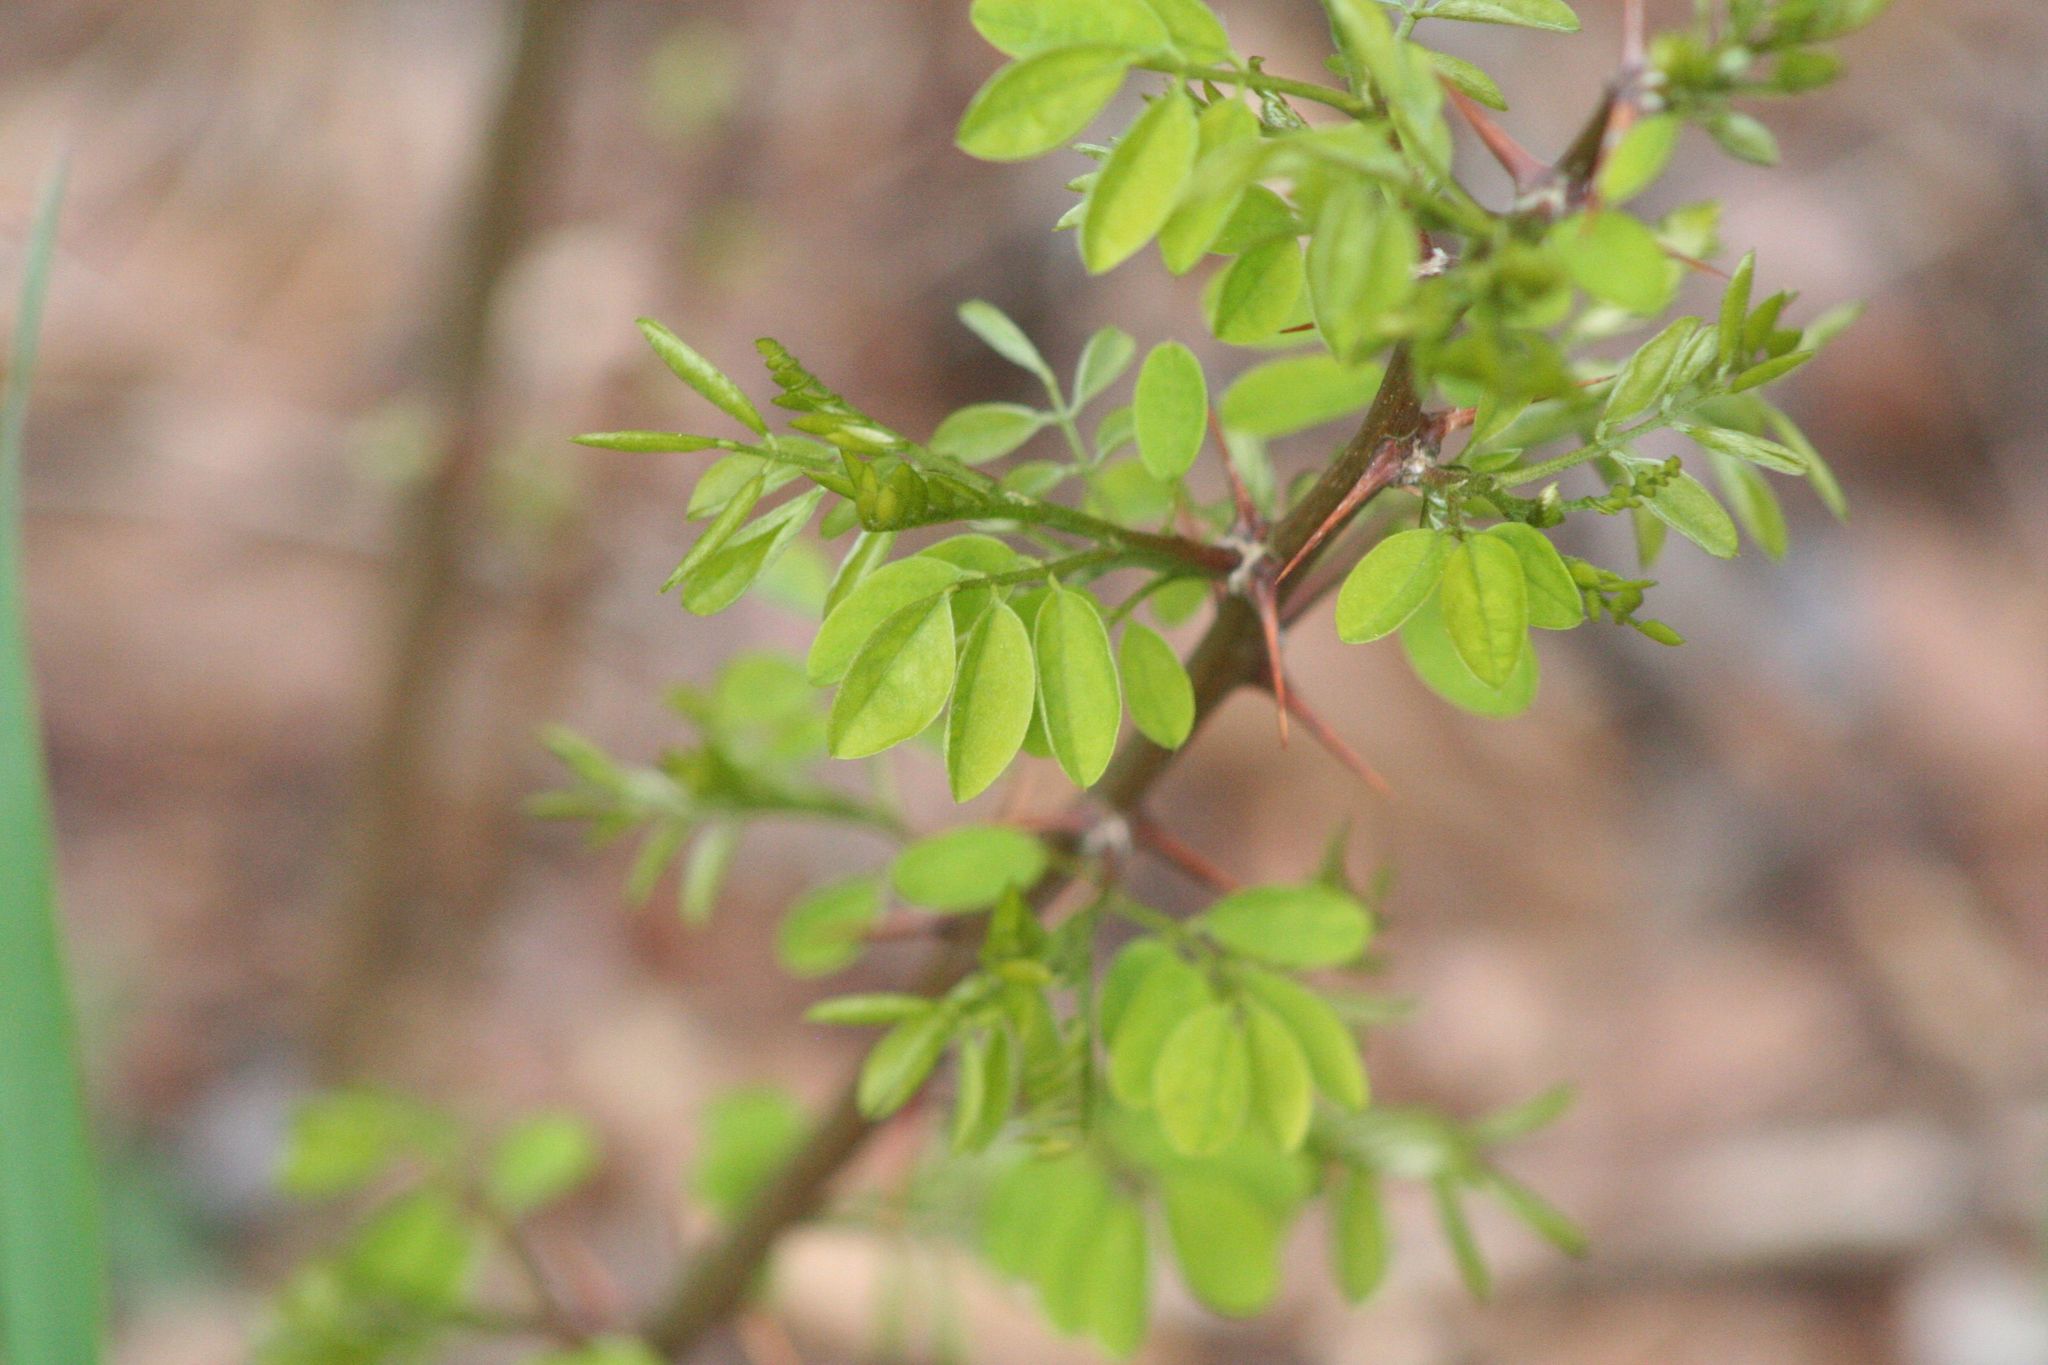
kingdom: Plantae
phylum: Tracheophyta
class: Magnoliopsida
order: Fabales
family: Fabaceae
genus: Robinia
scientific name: Robinia pseudoacacia
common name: Black locust
